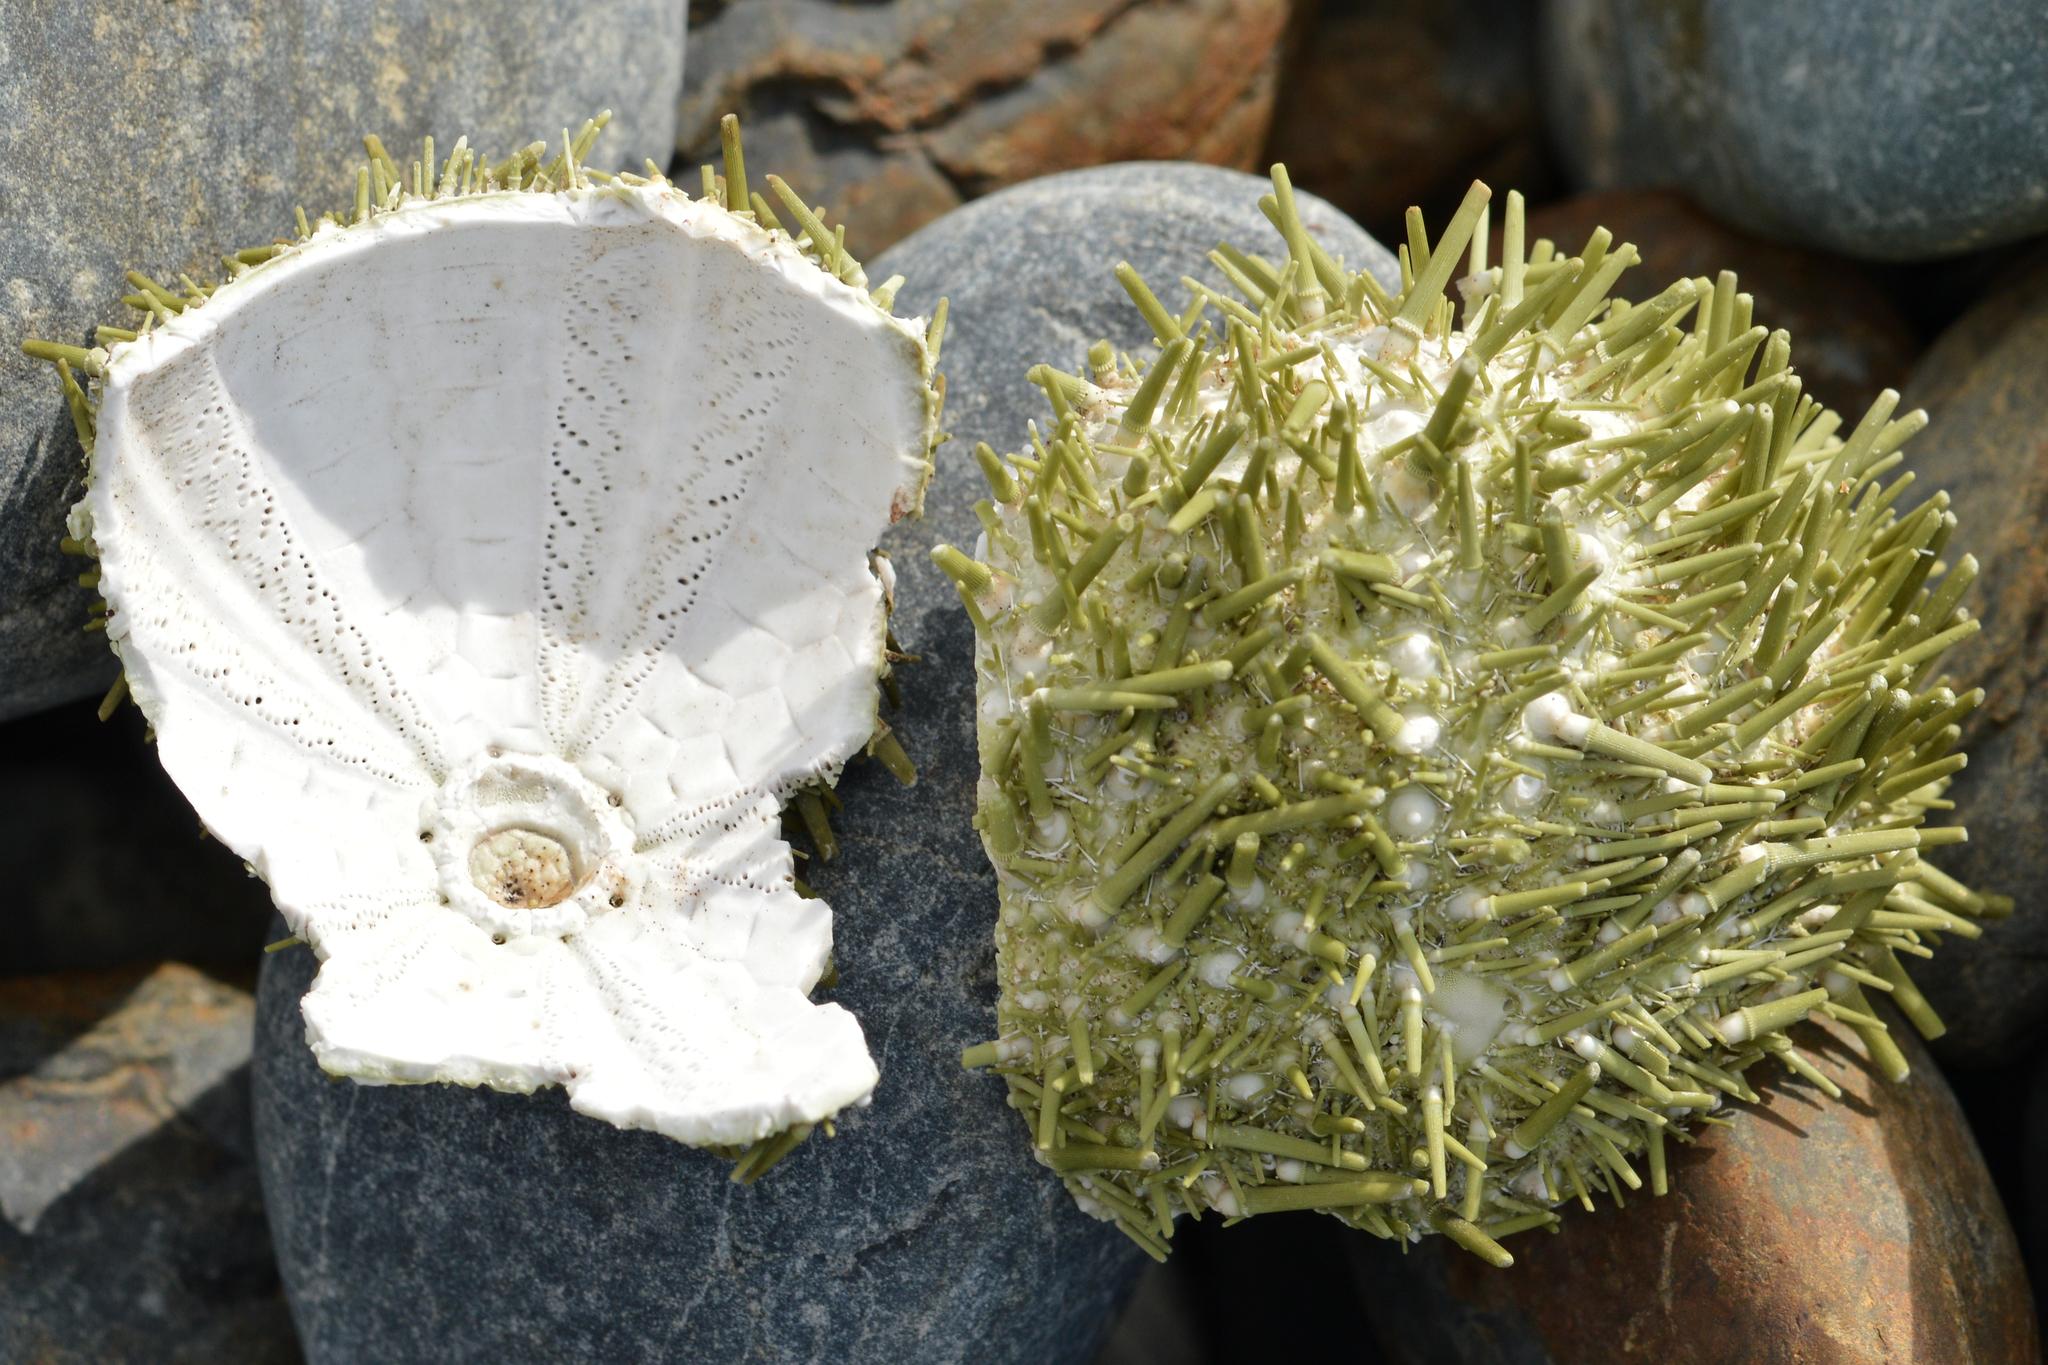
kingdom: Animalia
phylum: Echinodermata
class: Echinoidea
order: Camarodonta
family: Strongylocentrotidae
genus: Strongylocentrotus
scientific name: Strongylocentrotus droebachiensis
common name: Northern sea urchin
